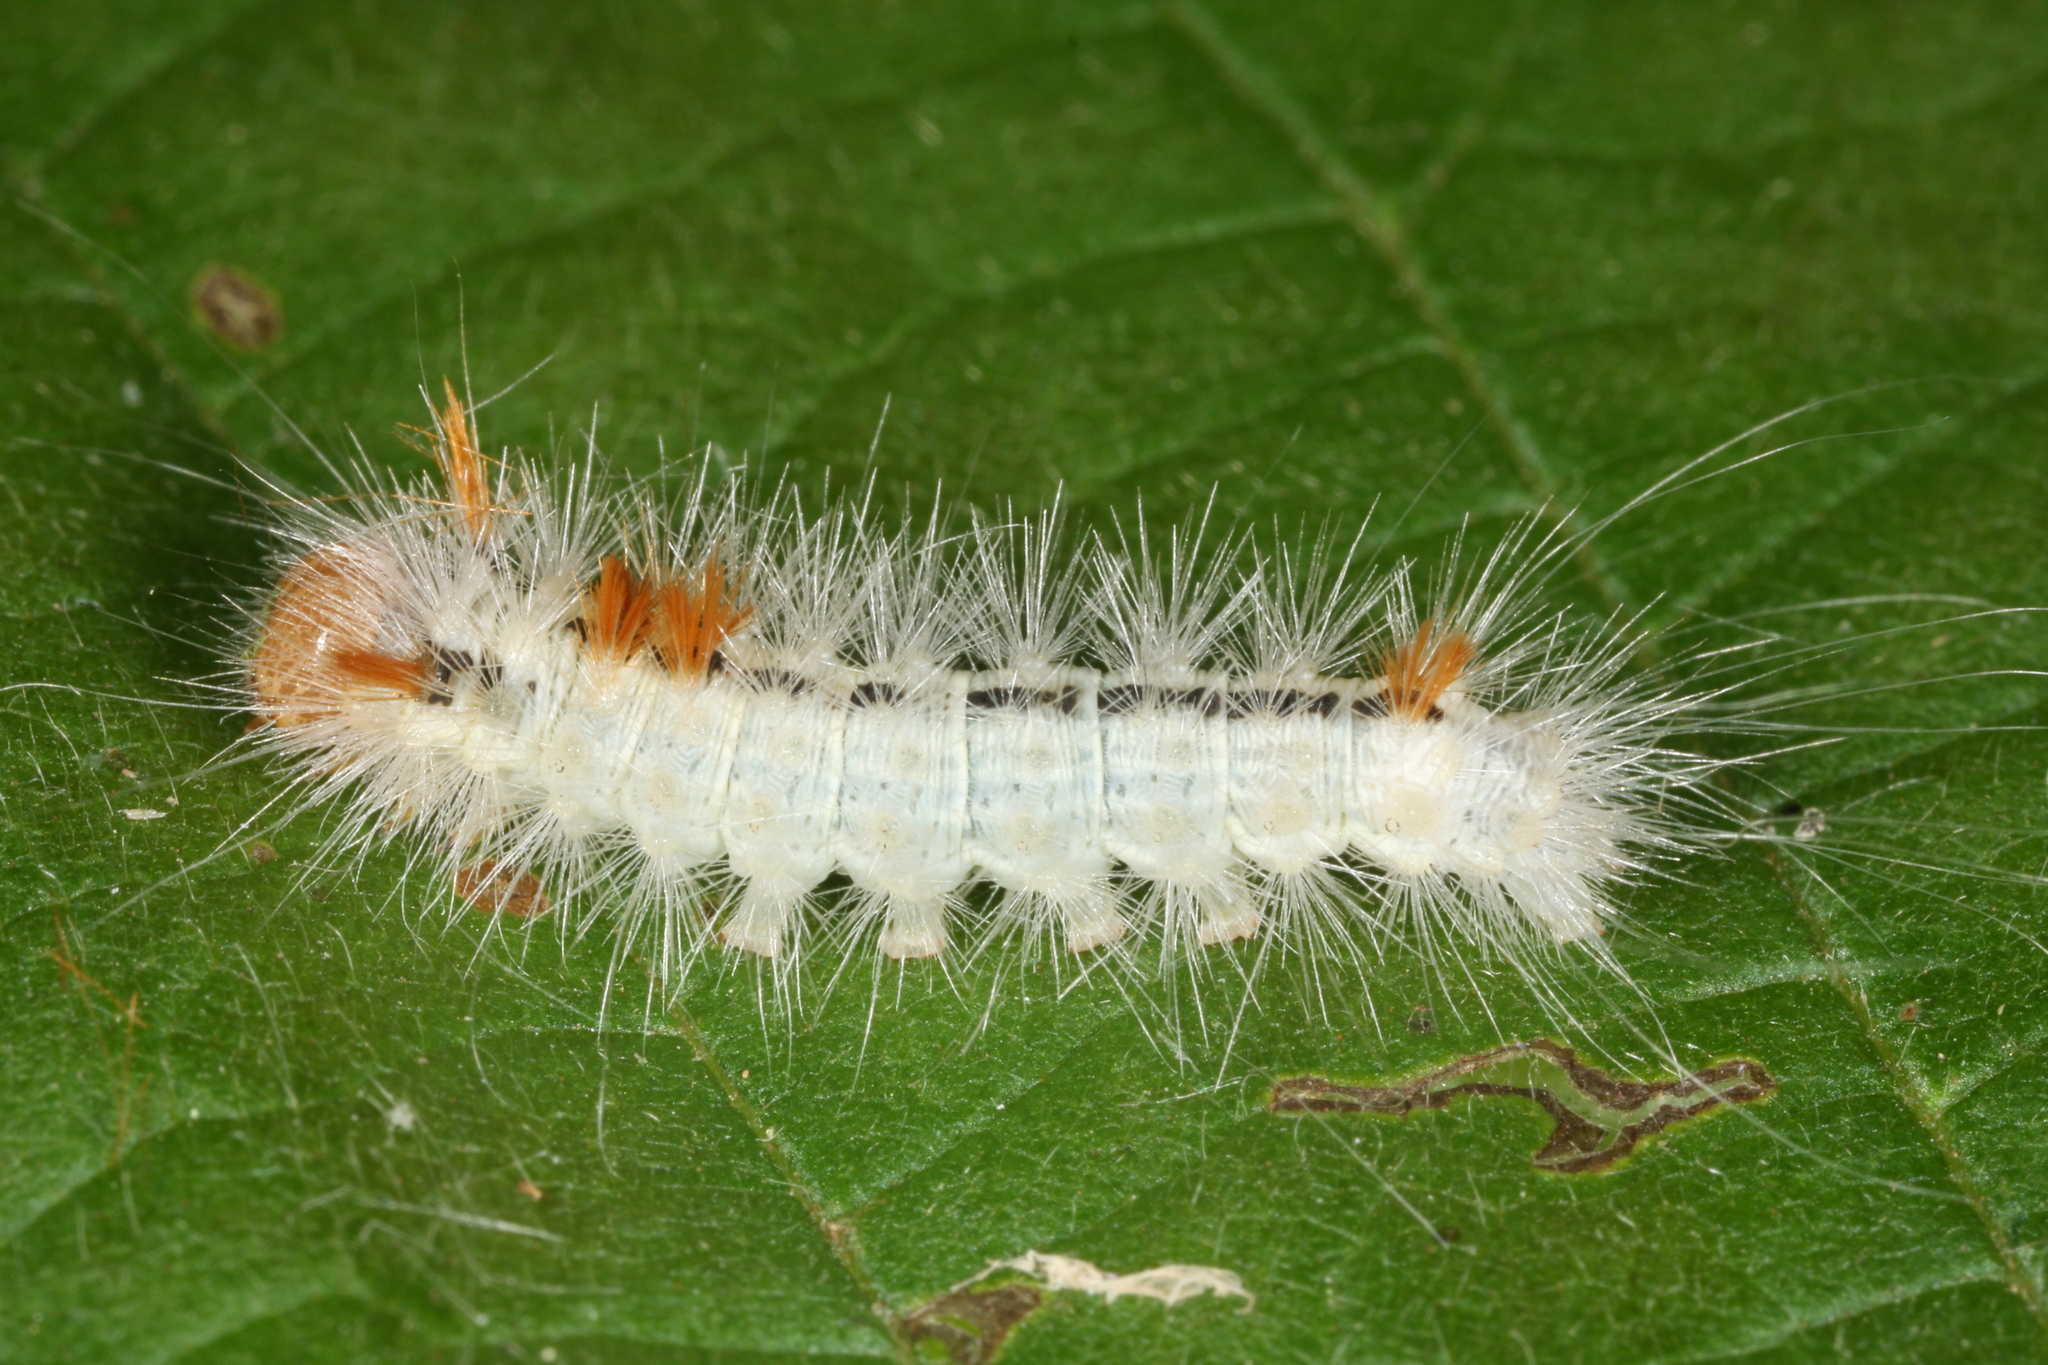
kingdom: Animalia
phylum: Arthropoda
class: Insecta
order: Lepidoptera
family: Noctuidae
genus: Colocasia
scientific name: Colocasia coryli
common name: Nut-tree tussock
